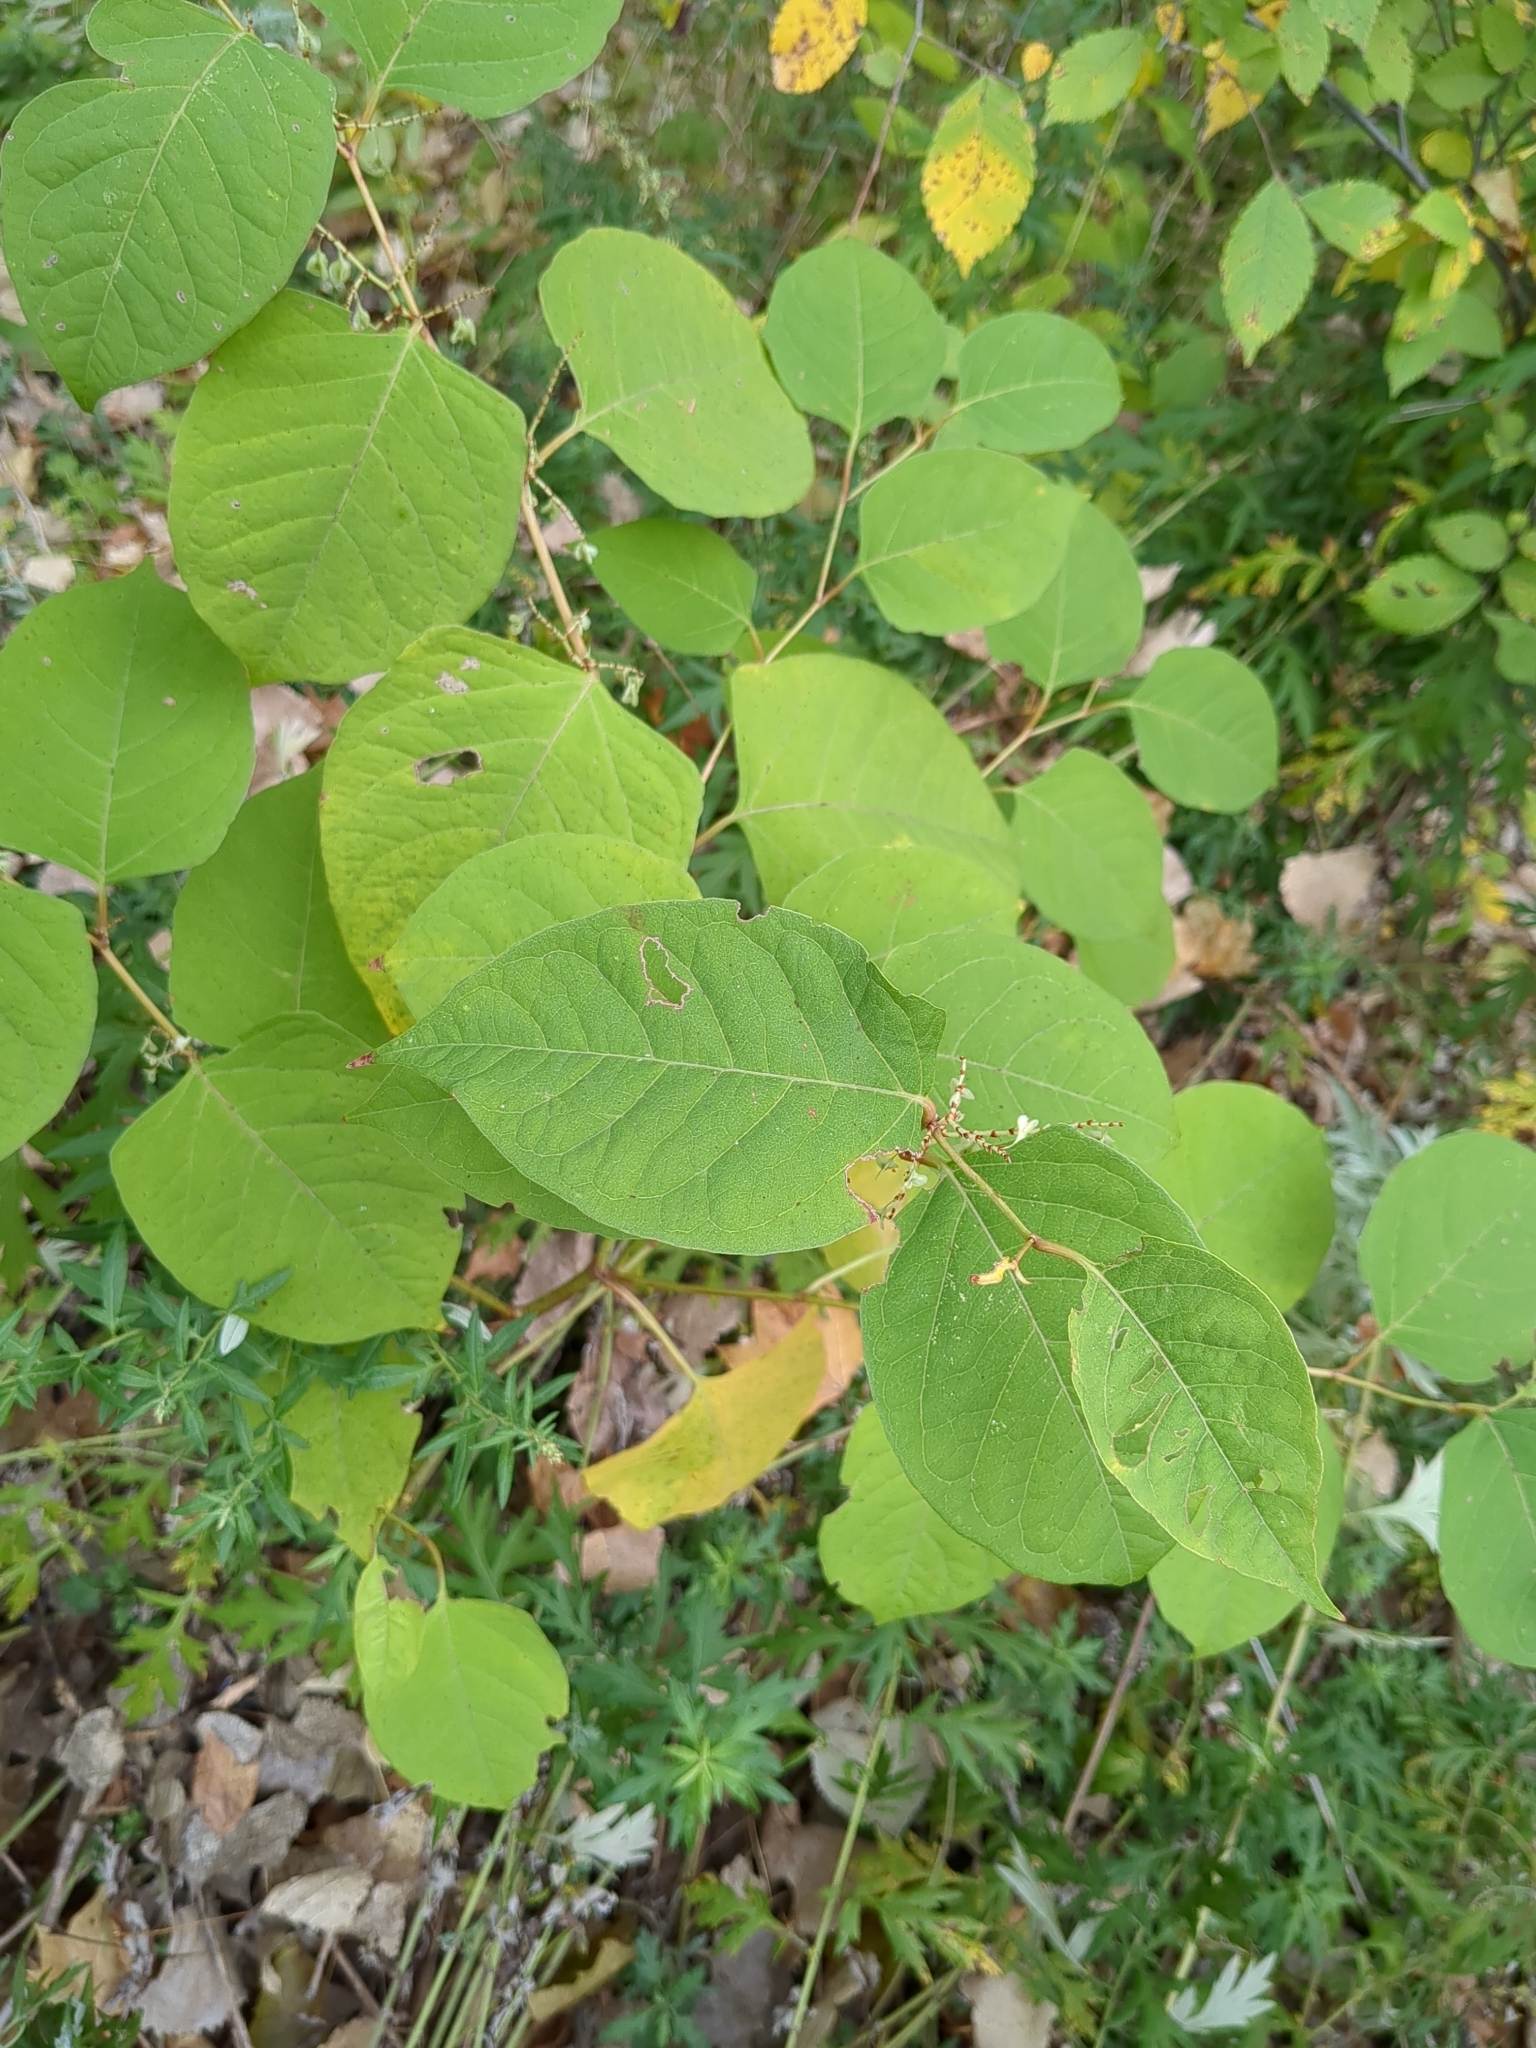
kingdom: Plantae
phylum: Tracheophyta
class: Magnoliopsida
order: Caryophyllales
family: Polygonaceae
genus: Reynoutria
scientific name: Reynoutria japonica
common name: Japanese knotweed
